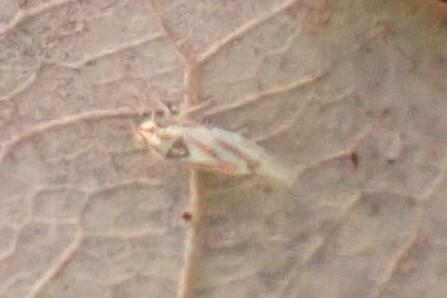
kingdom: Animalia
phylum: Arthropoda
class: Insecta
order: Hemiptera
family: Cicadellidae
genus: Erythridula
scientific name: Erythridula
